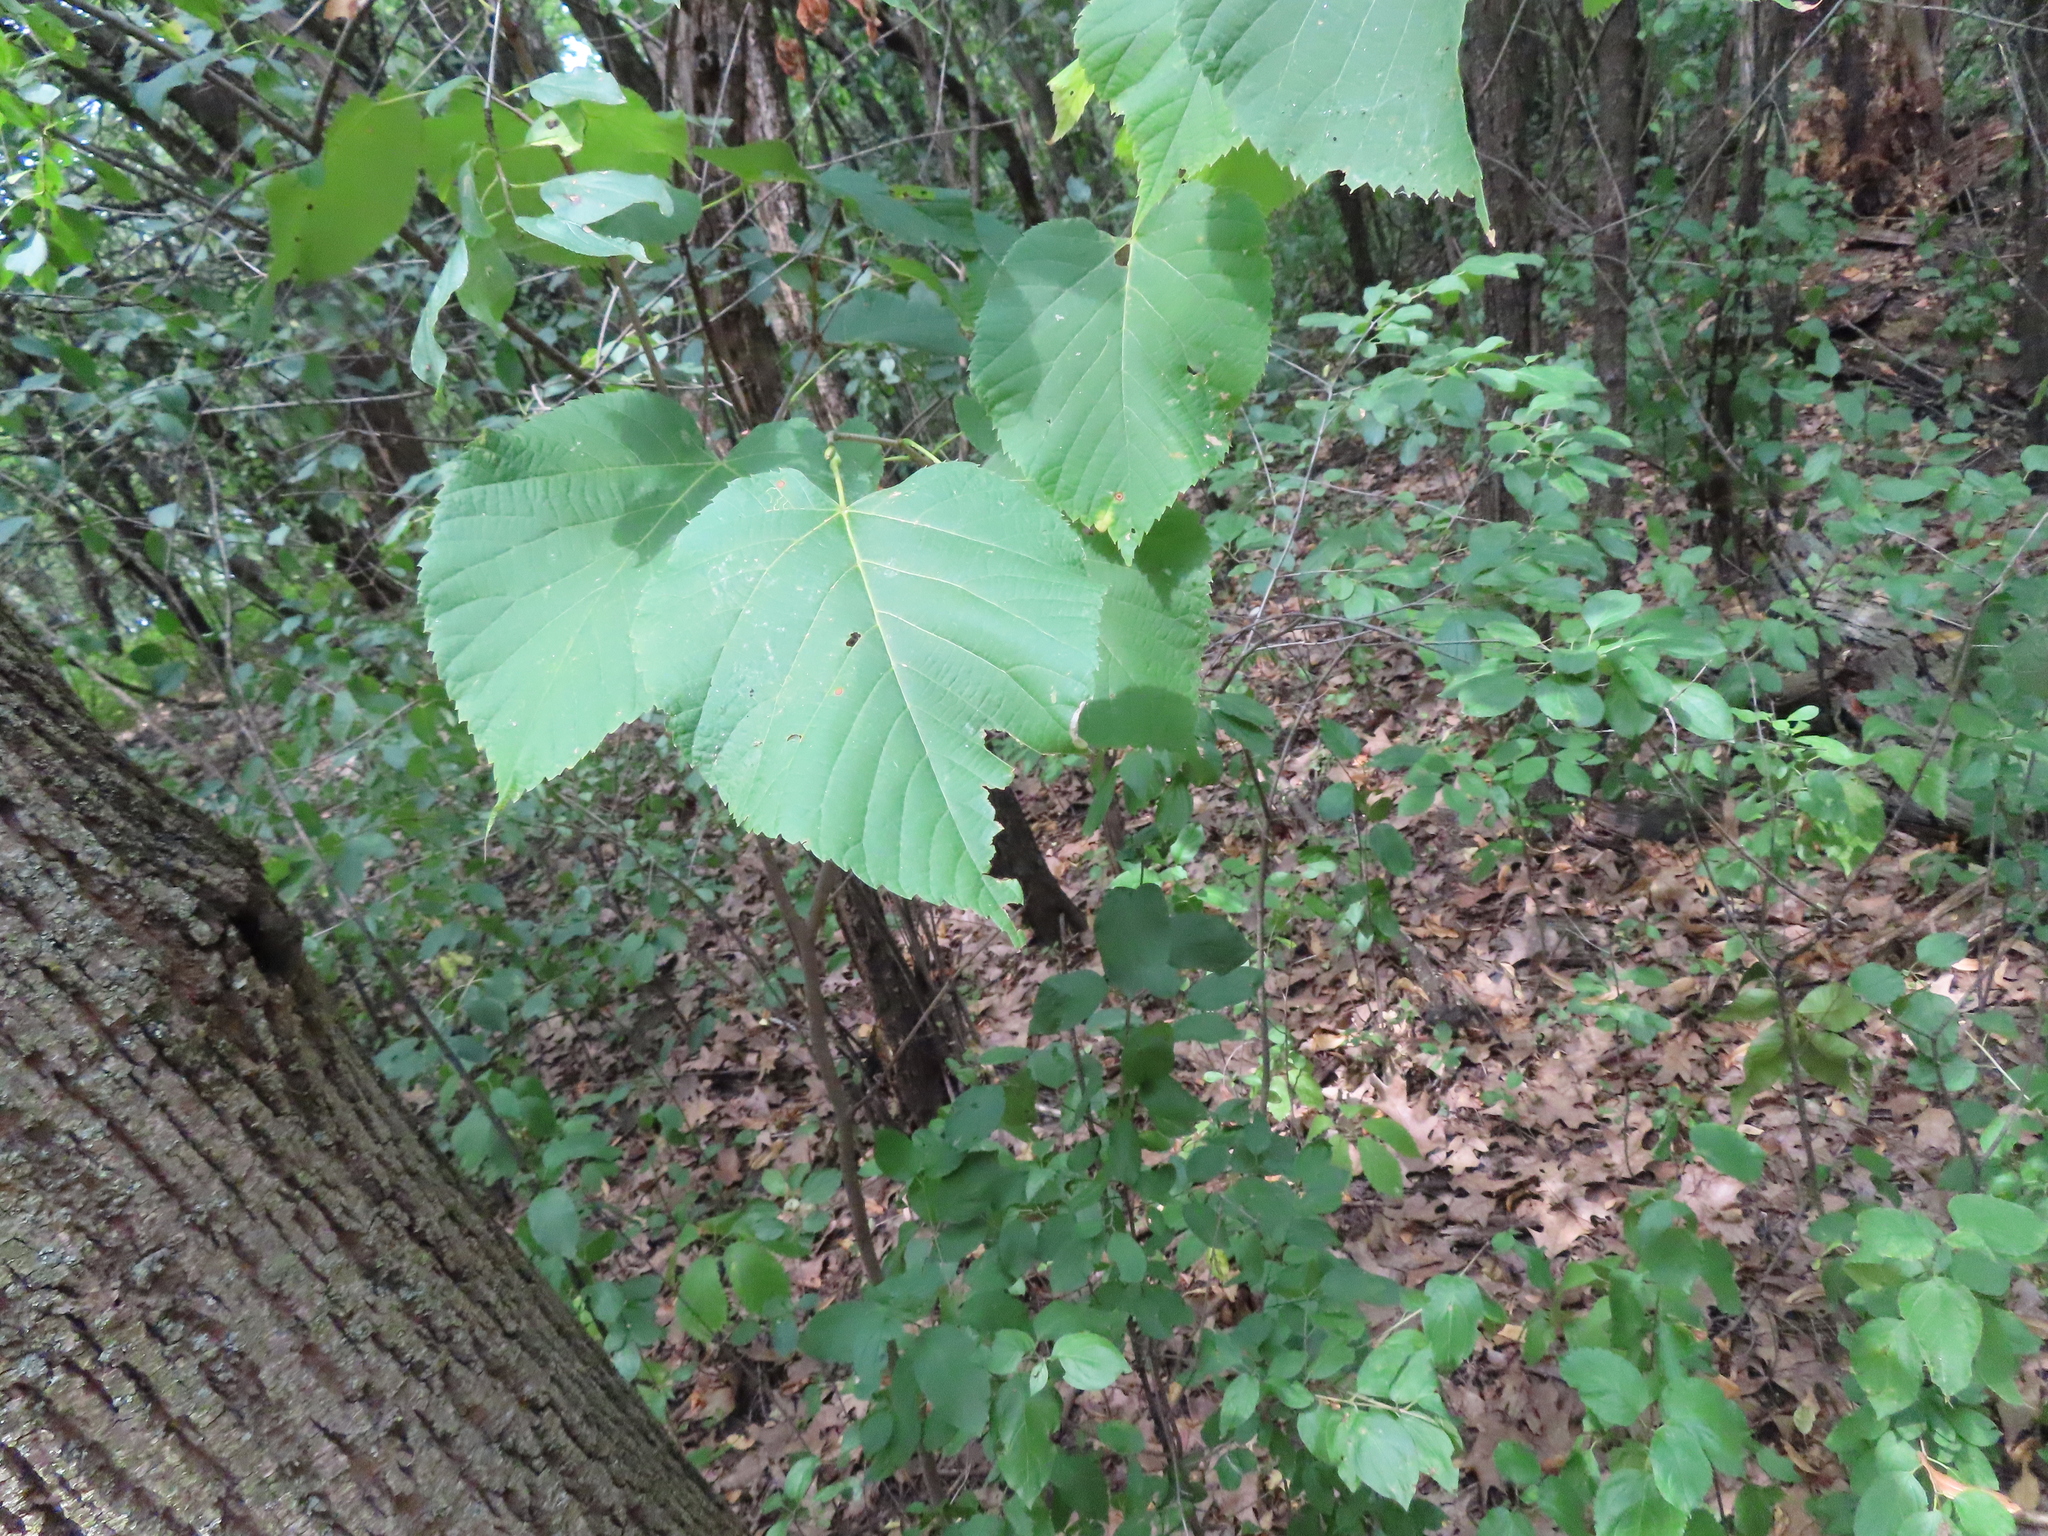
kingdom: Plantae
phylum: Tracheophyta
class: Magnoliopsida
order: Malvales
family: Malvaceae
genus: Tilia
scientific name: Tilia americana
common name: Basswood
